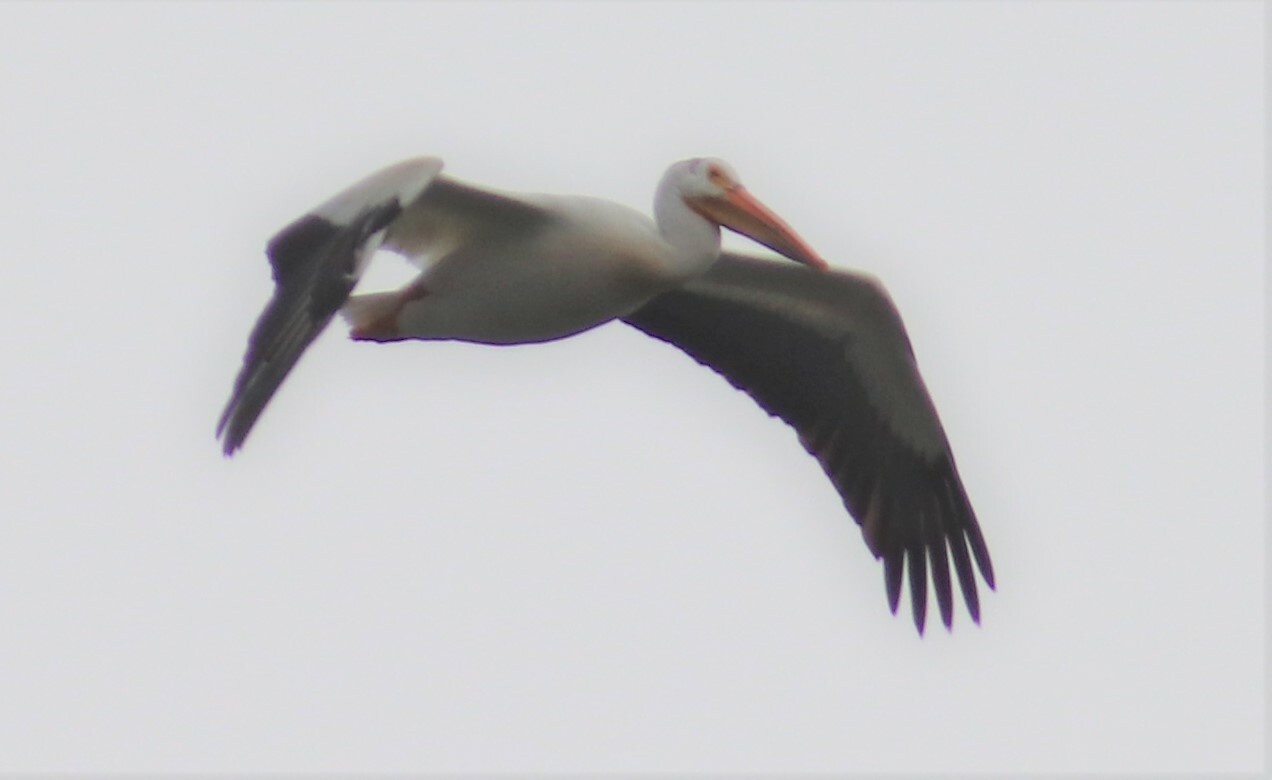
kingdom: Animalia
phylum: Chordata
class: Aves
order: Pelecaniformes
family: Pelecanidae
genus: Pelecanus
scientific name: Pelecanus erythrorhynchos
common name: American white pelican
